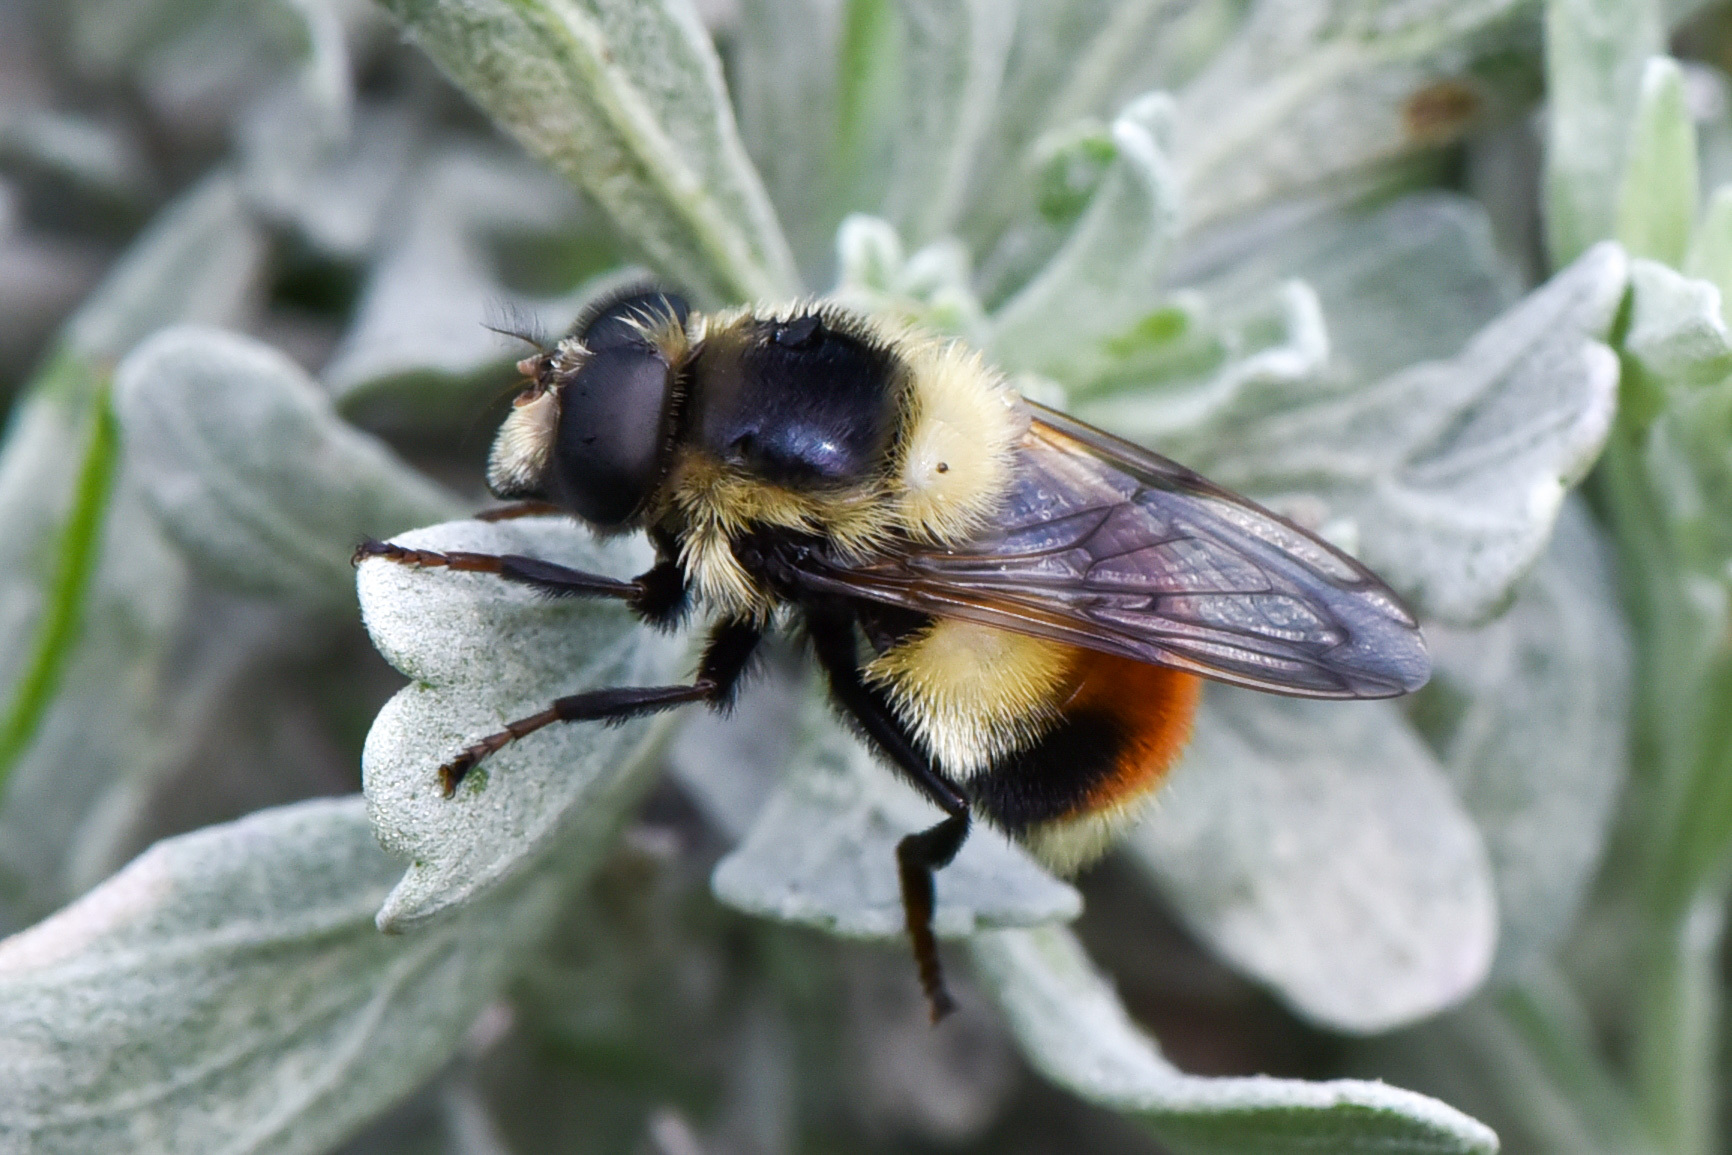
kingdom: Animalia
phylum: Arthropoda
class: Insecta
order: Diptera
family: Syrphidae
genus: Volucella
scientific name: Volucella facialis
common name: Yellow-faced swiftwing
